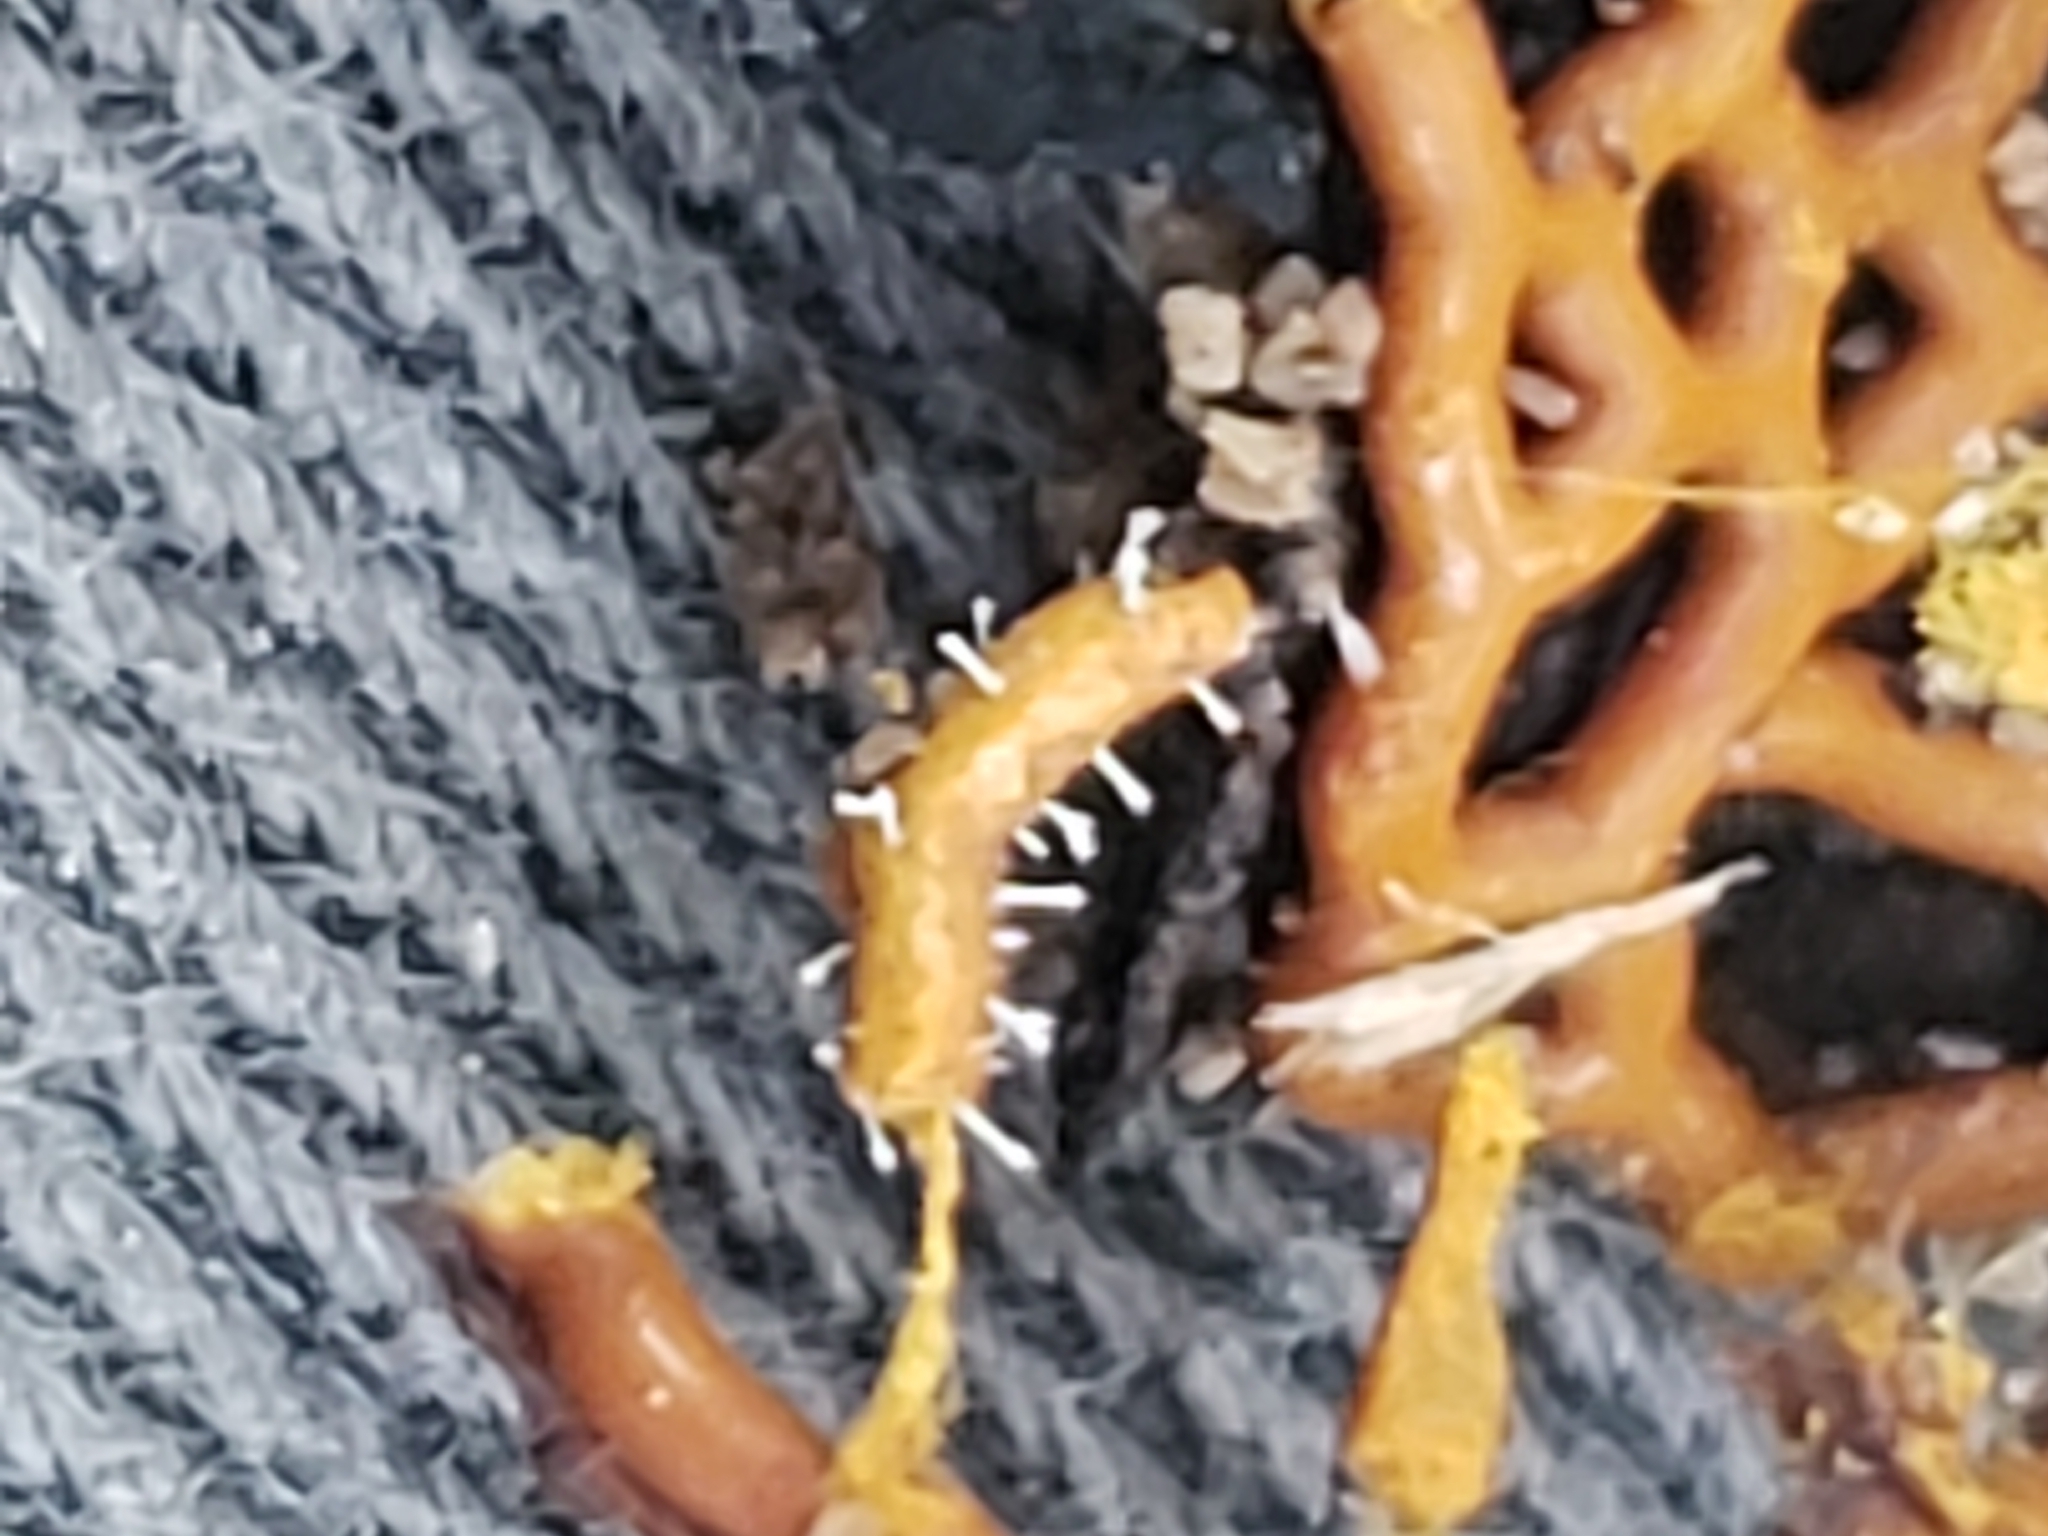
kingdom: Fungi
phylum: Ascomycota
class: Sordariomycetes
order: Hypocreales
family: Ophiocordycipitaceae
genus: Polycephalomyces
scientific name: Polycephalomyces tomentosus
